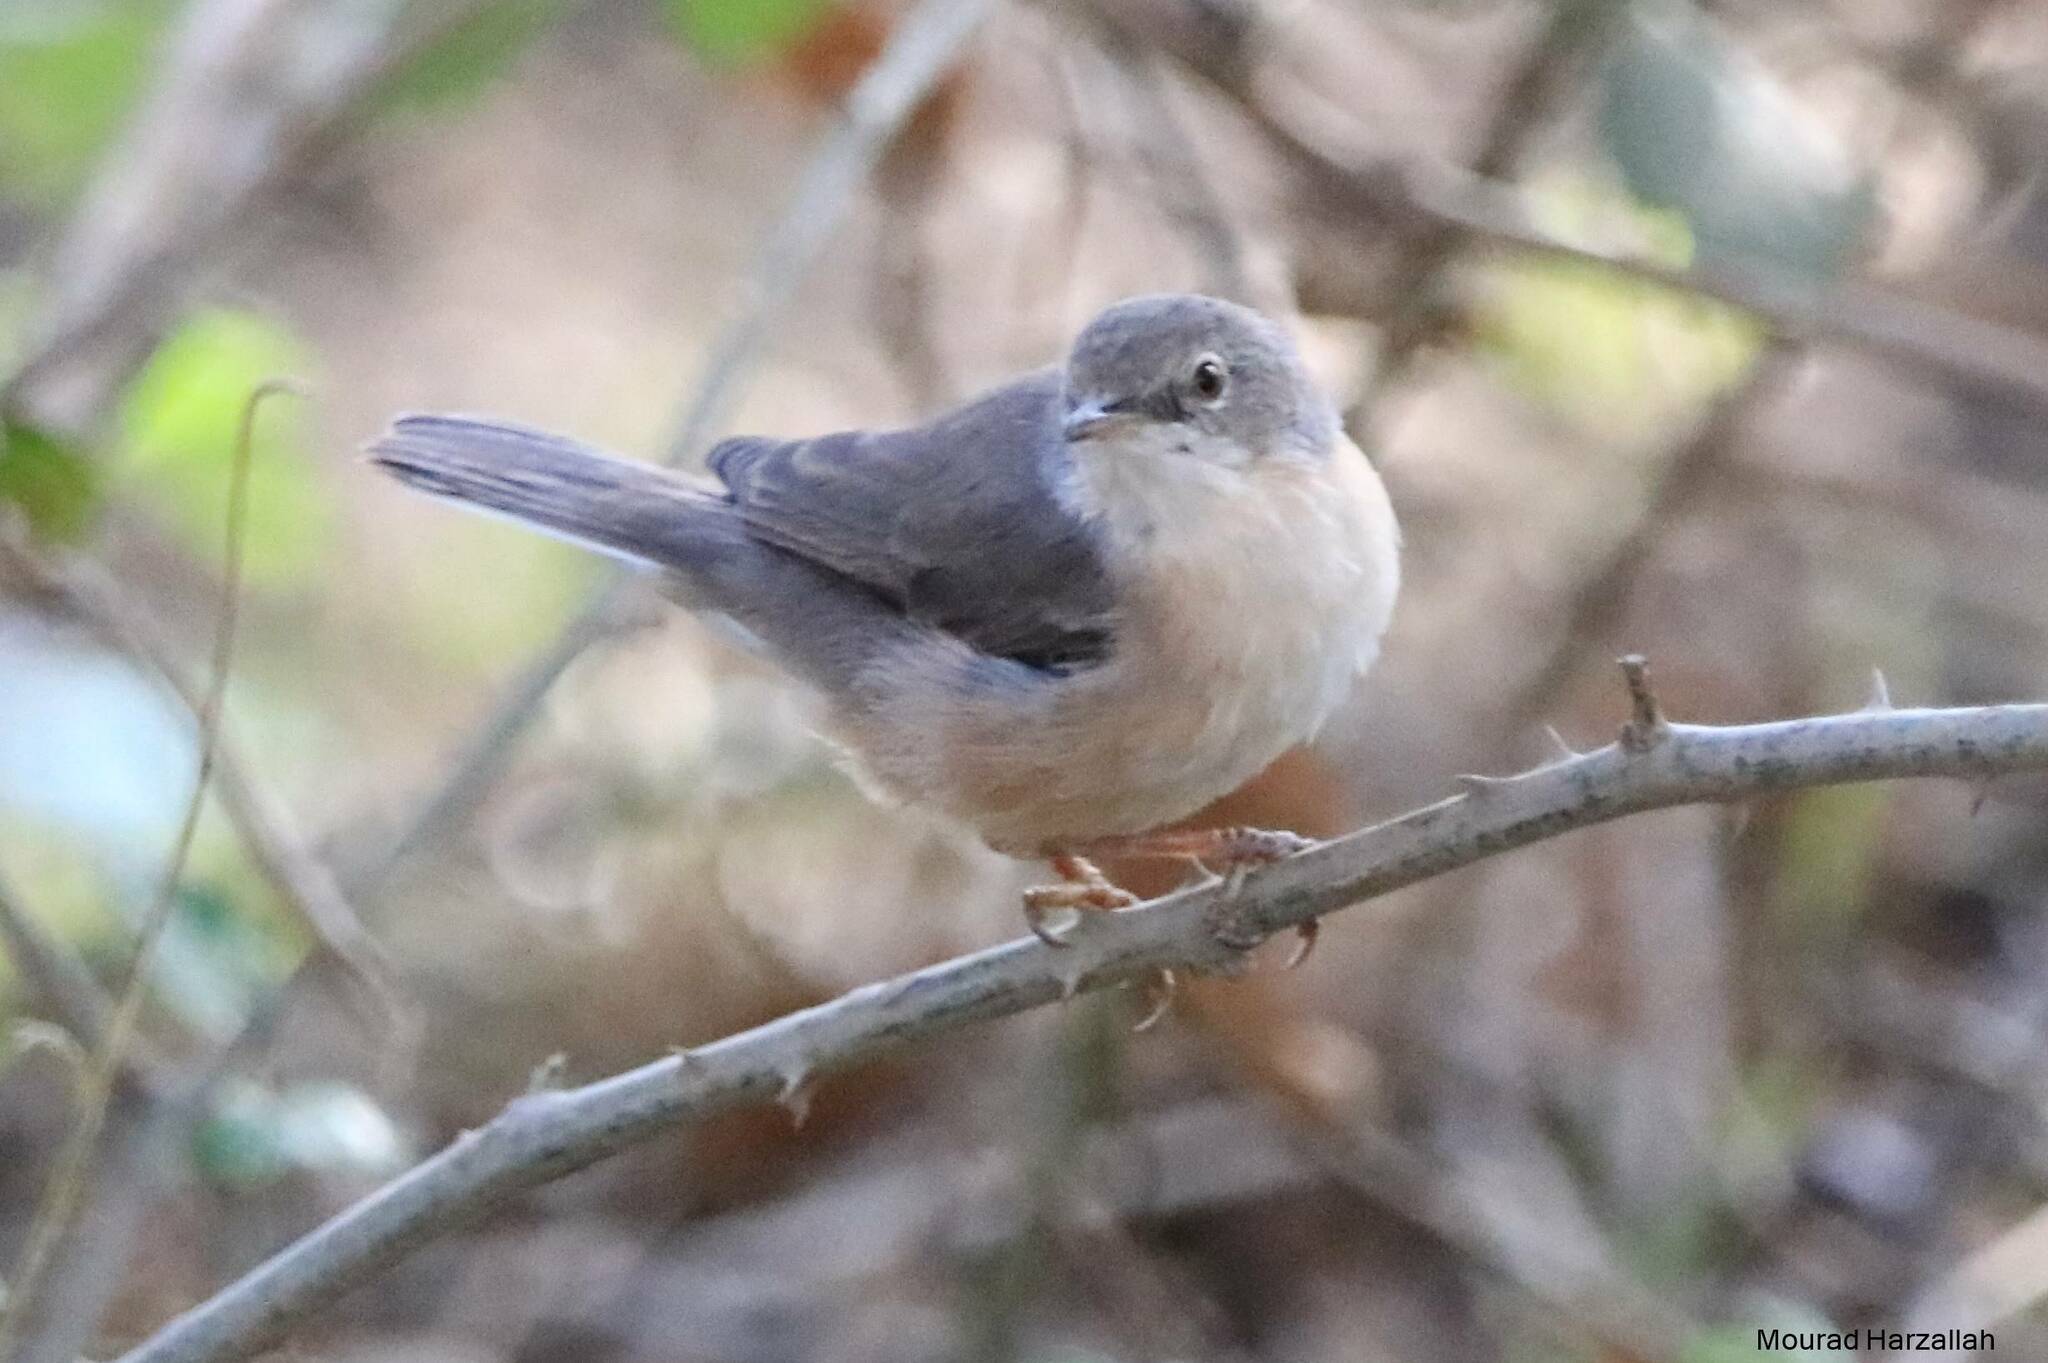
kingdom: Animalia
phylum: Chordata
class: Aves
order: Passeriformes
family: Sylviidae
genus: Curruca
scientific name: Curruca iberiae
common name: Western subalpine warbler
